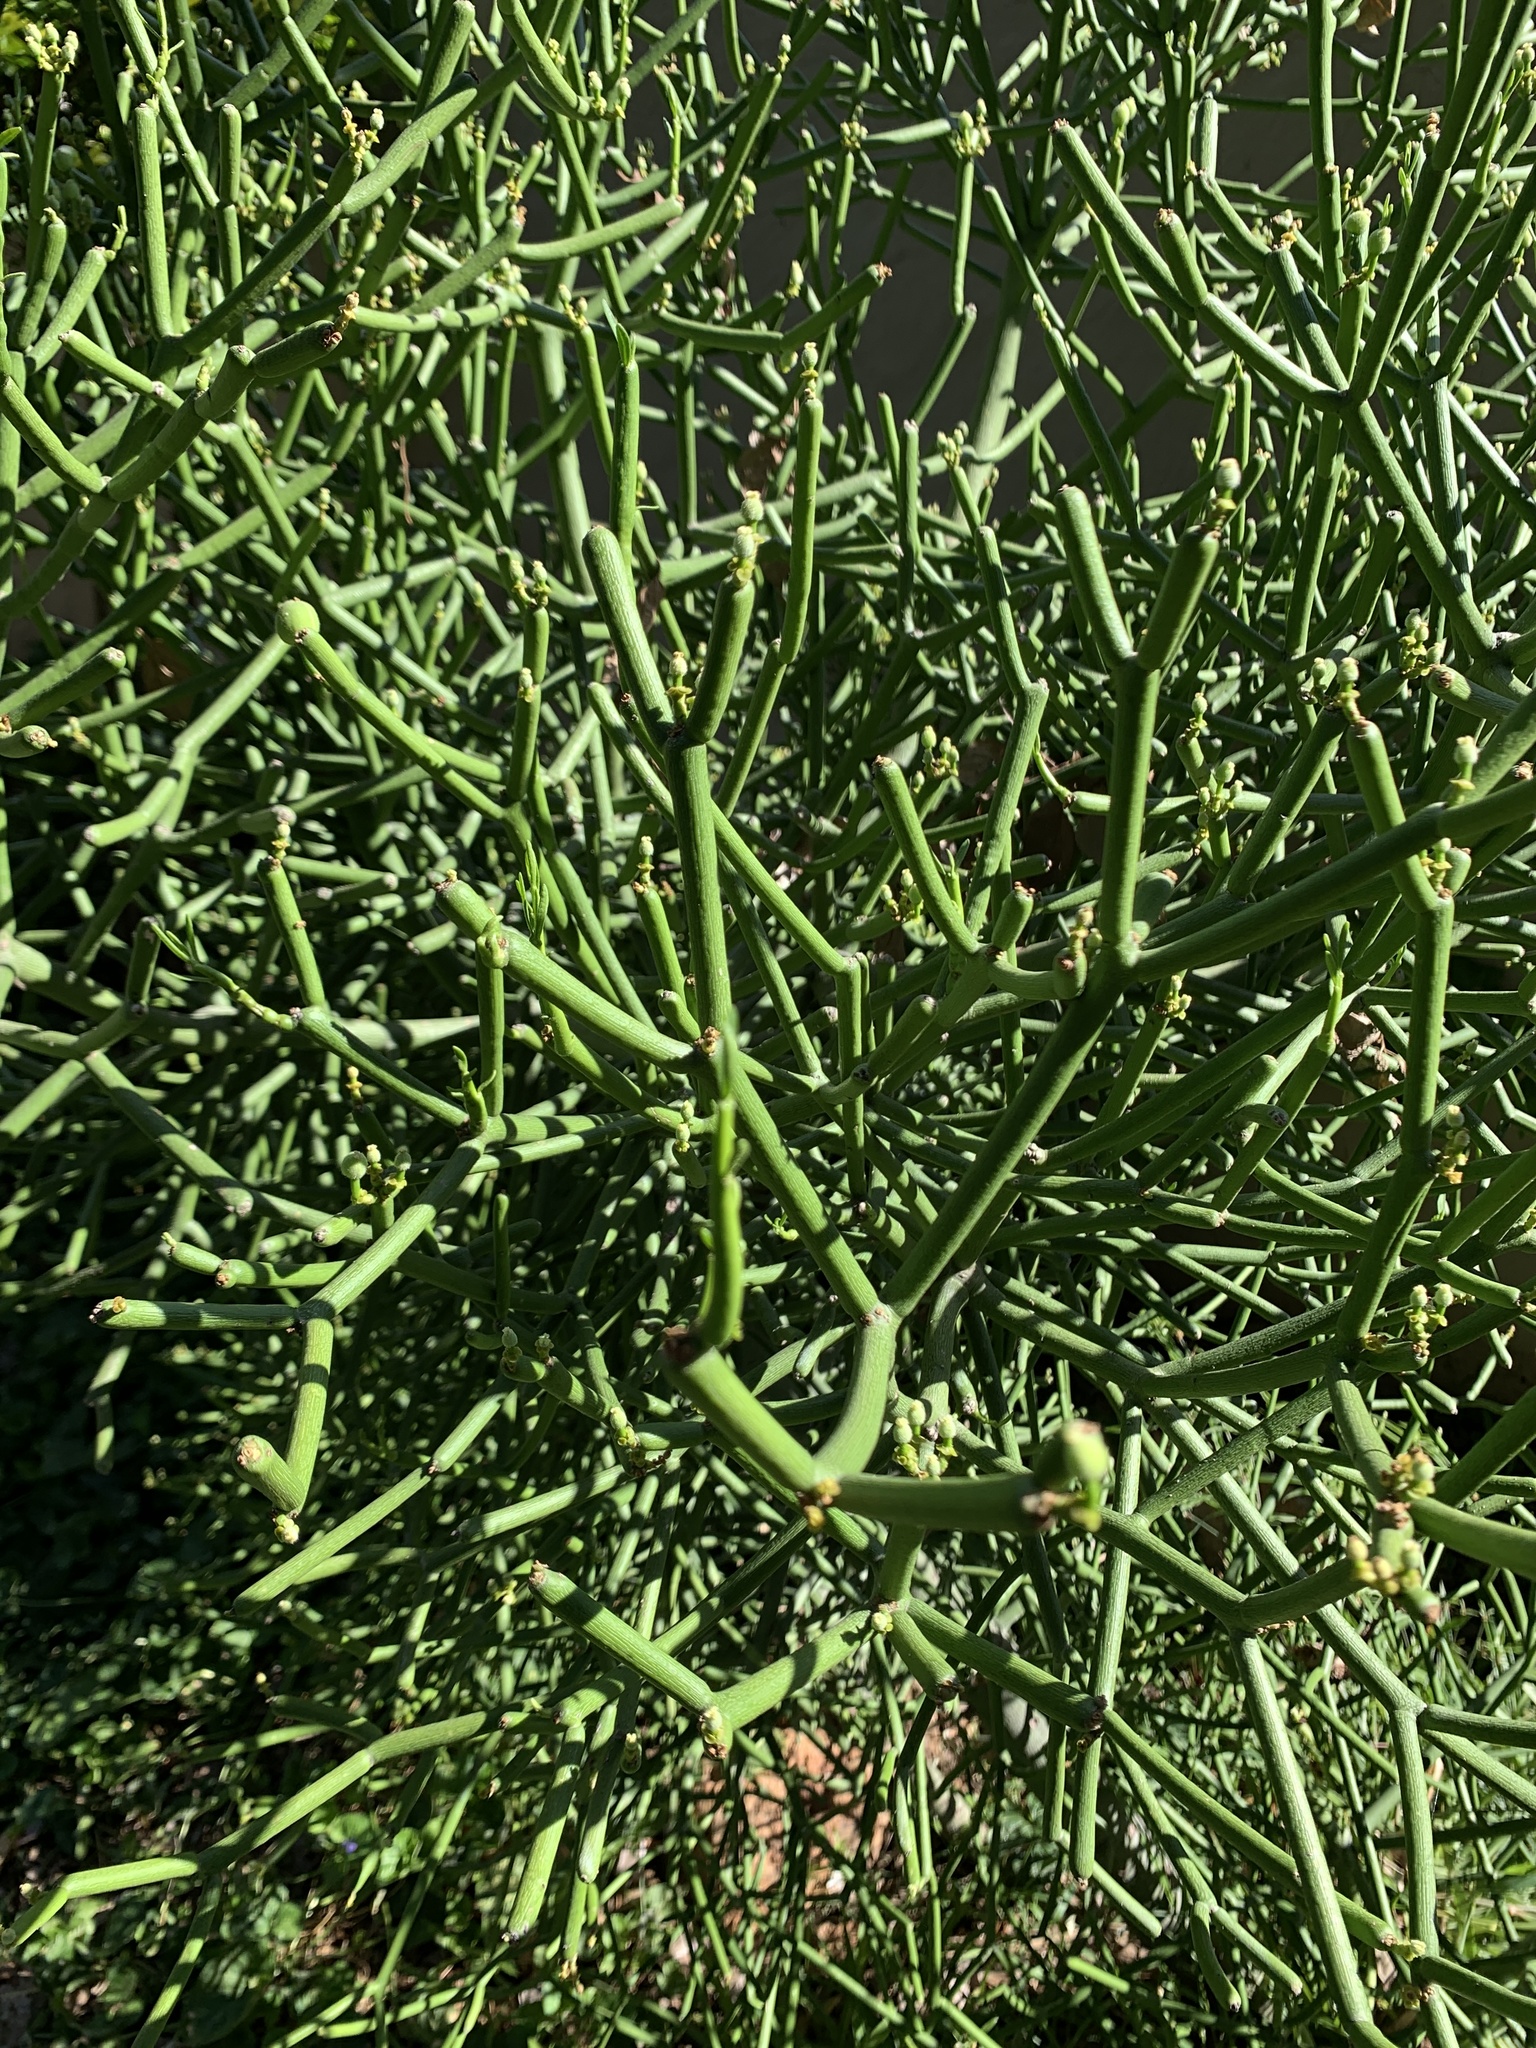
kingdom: Plantae
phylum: Tracheophyta
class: Magnoliopsida
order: Malpighiales
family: Euphorbiaceae
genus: Euphorbia
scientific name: Euphorbia tirucalli
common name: Indiantree spurge
